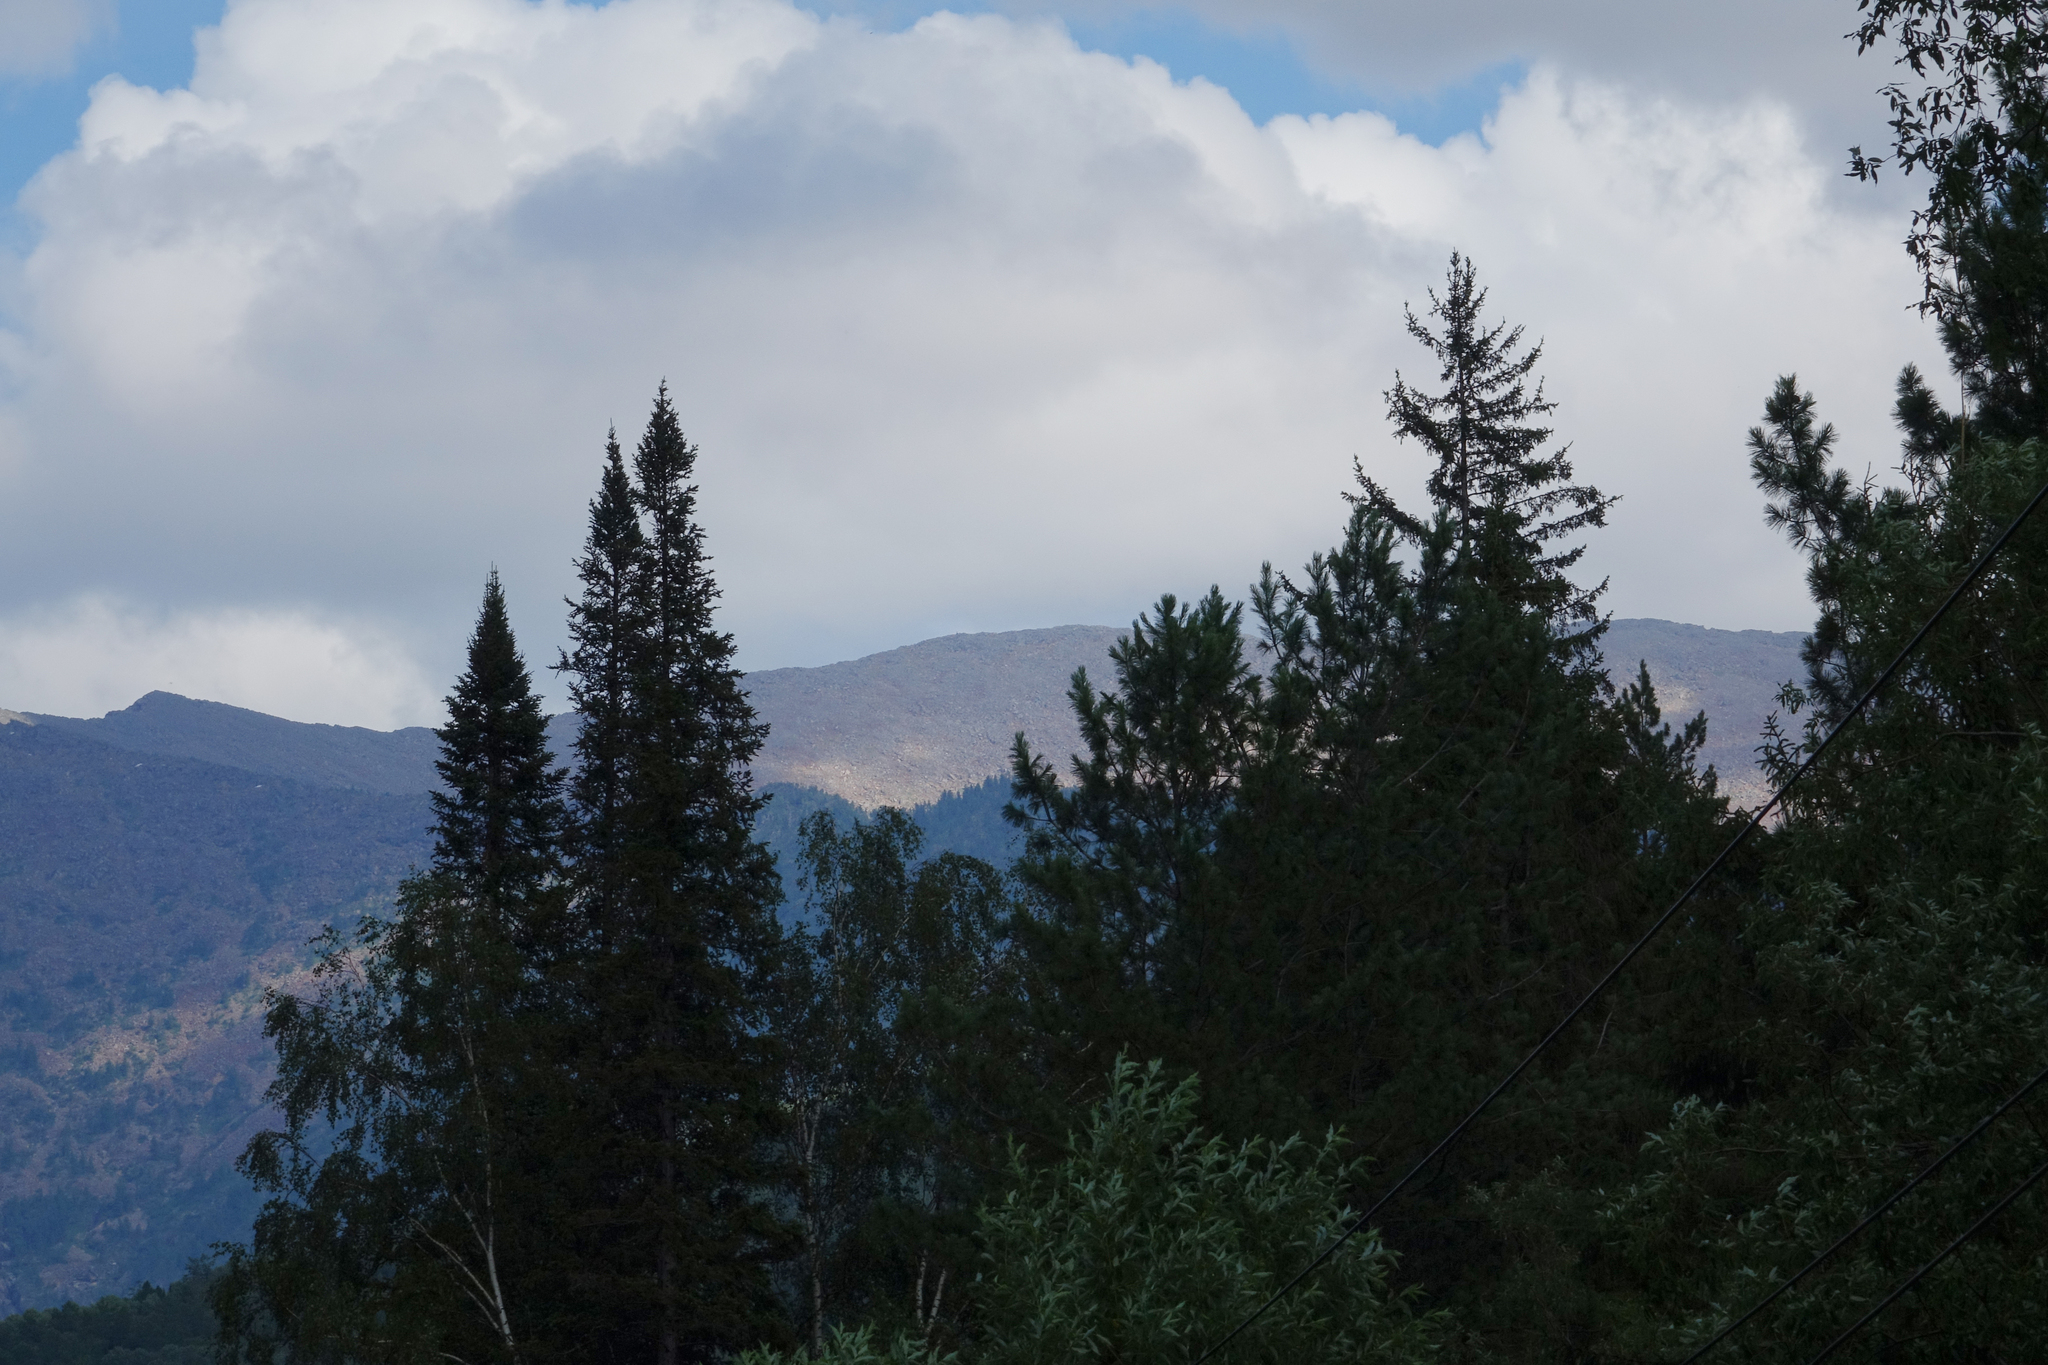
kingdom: Plantae
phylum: Tracheophyta
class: Pinopsida
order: Pinales
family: Pinaceae
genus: Abies
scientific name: Abies sibirica
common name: Siberian fir
